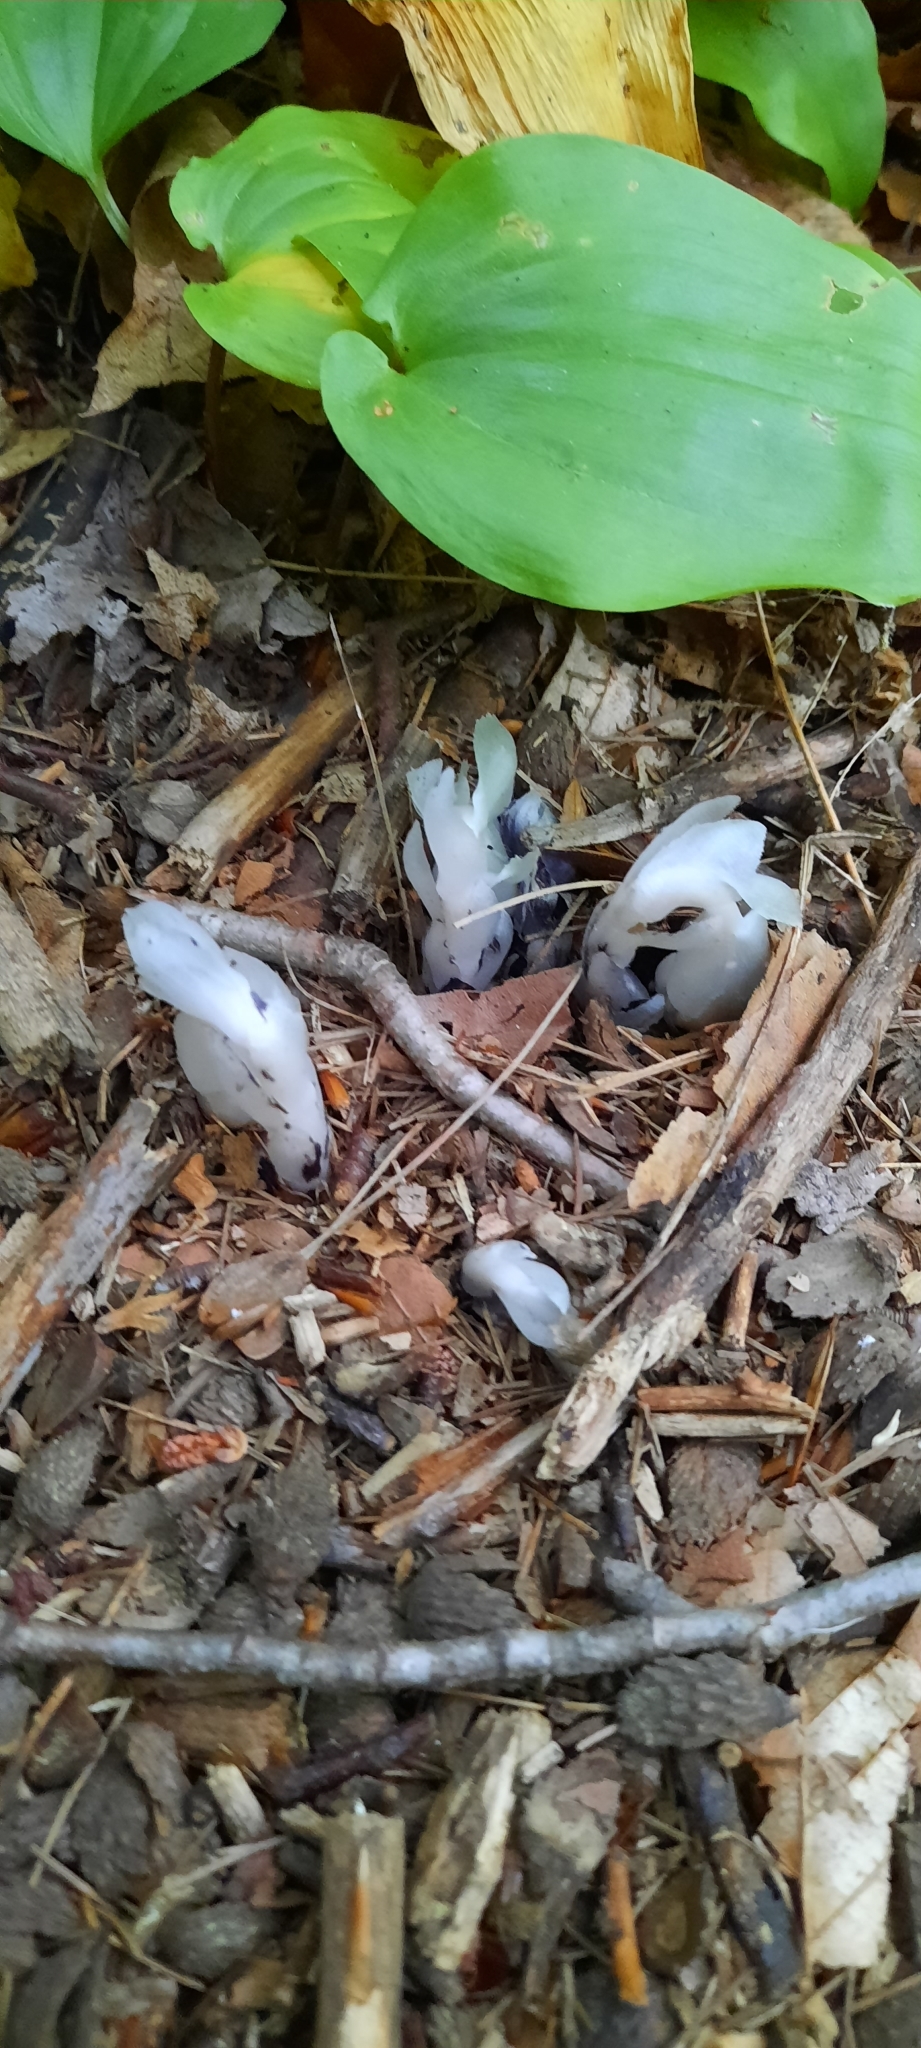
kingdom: Plantae
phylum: Tracheophyta
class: Magnoliopsida
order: Ericales
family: Ericaceae
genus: Monotropa
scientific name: Monotropa uniflora
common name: Convulsion root
